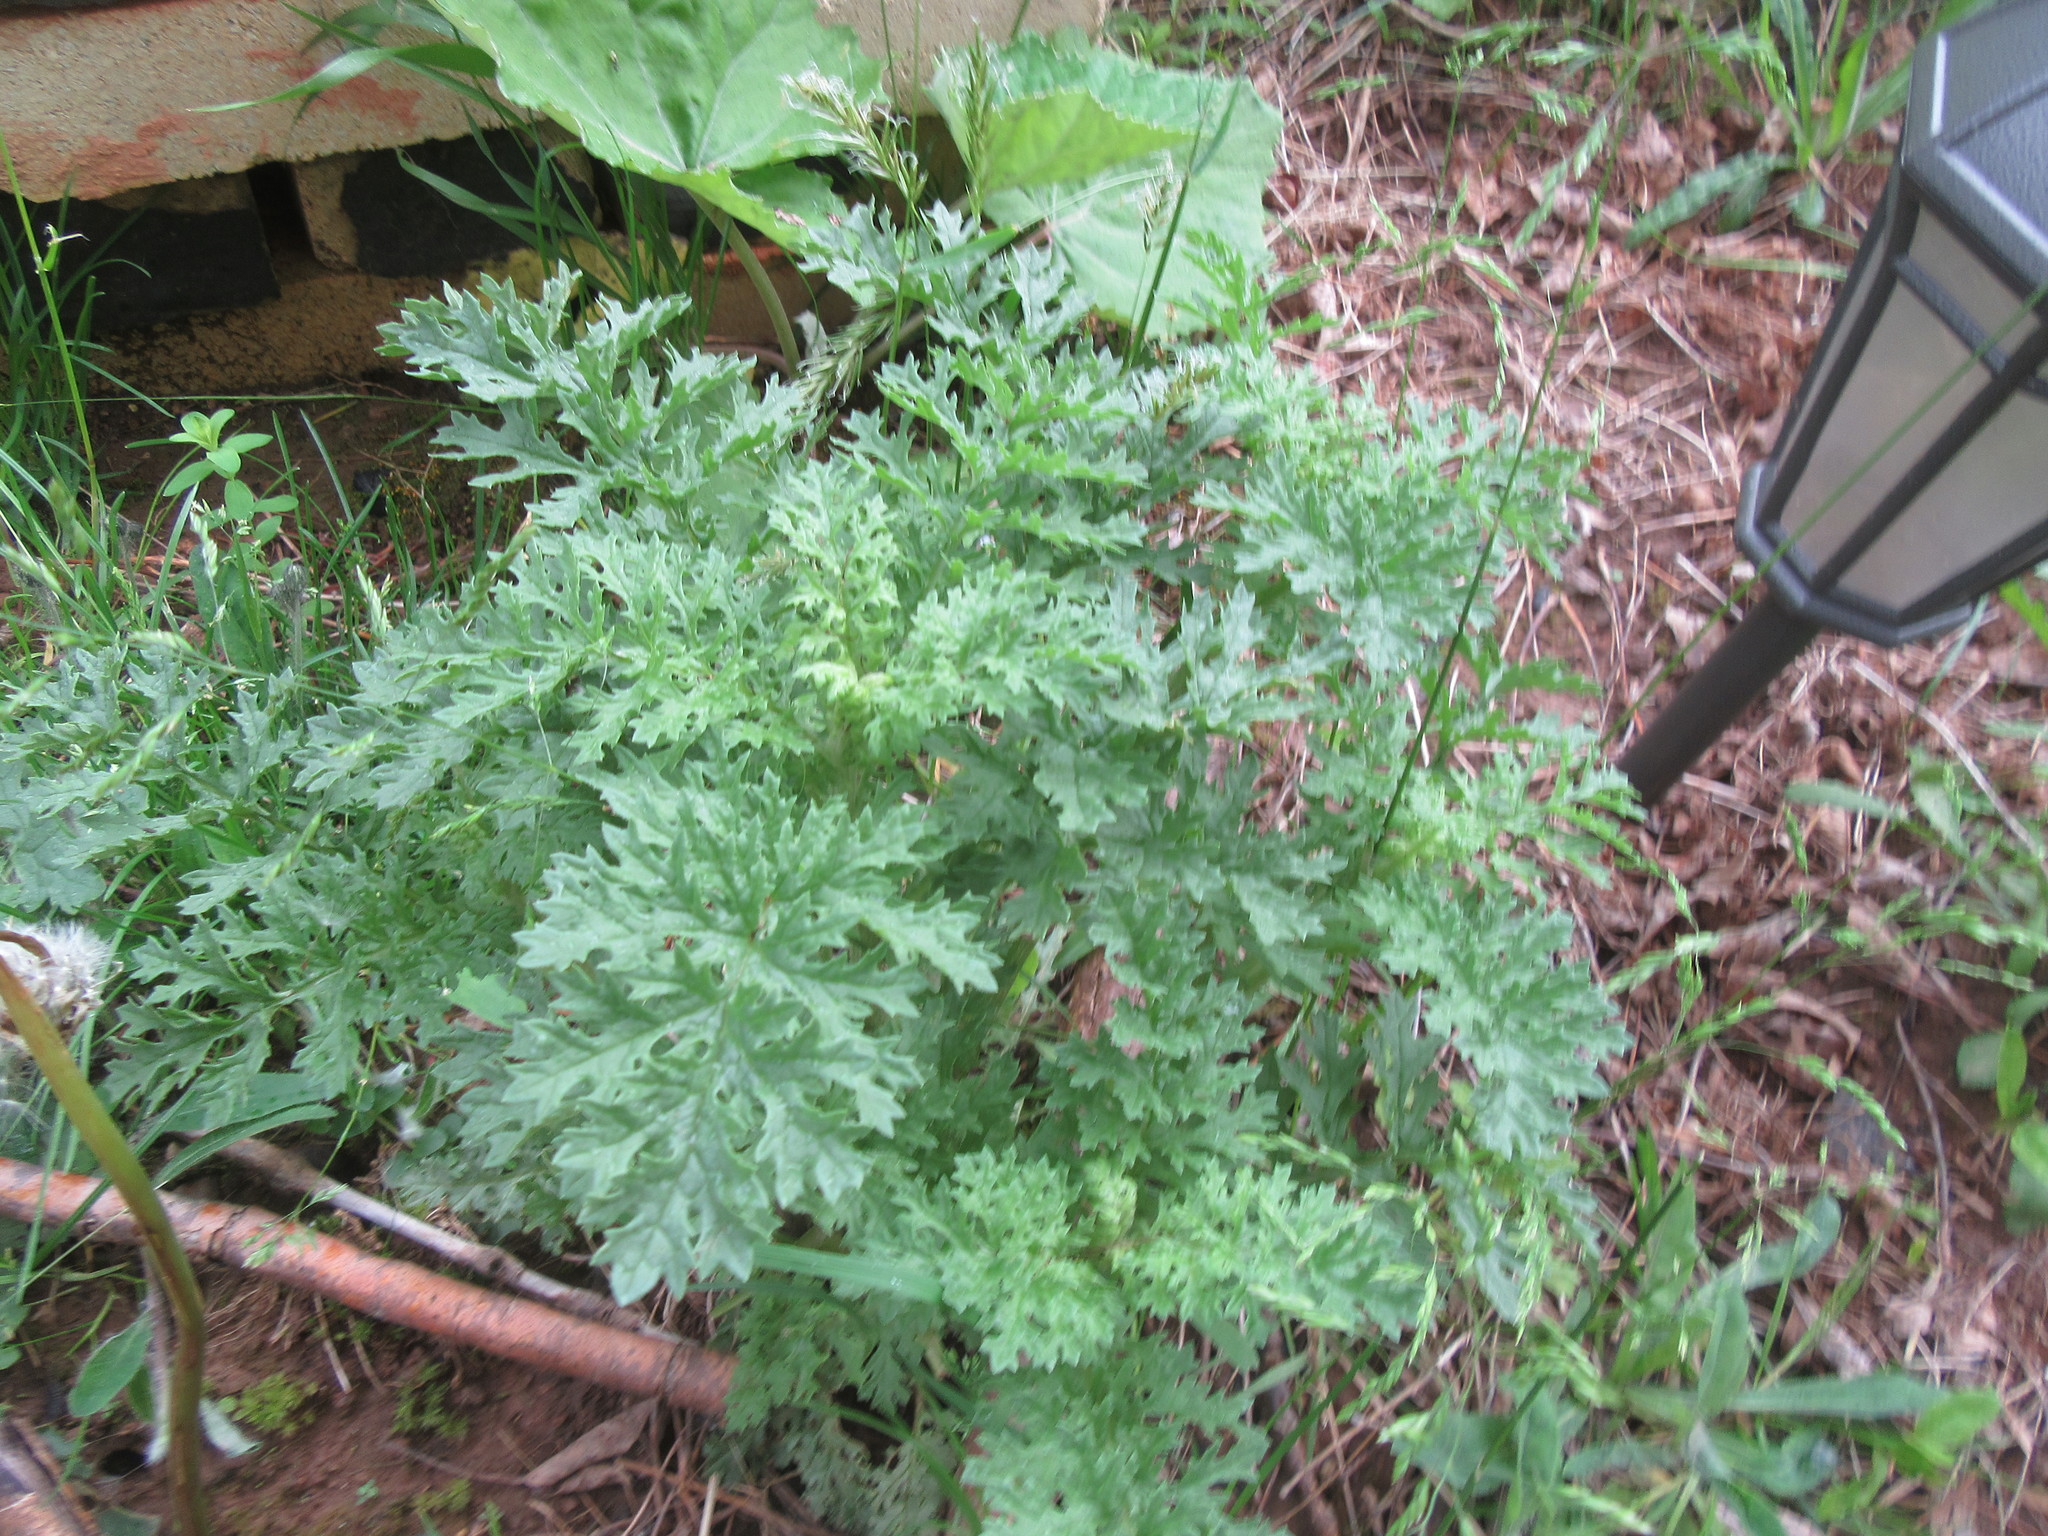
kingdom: Plantae
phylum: Tracheophyta
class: Magnoliopsida
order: Asterales
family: Asteraceae
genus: Jacobaea
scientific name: Jacobaea vulgaris
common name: Stinking willie
